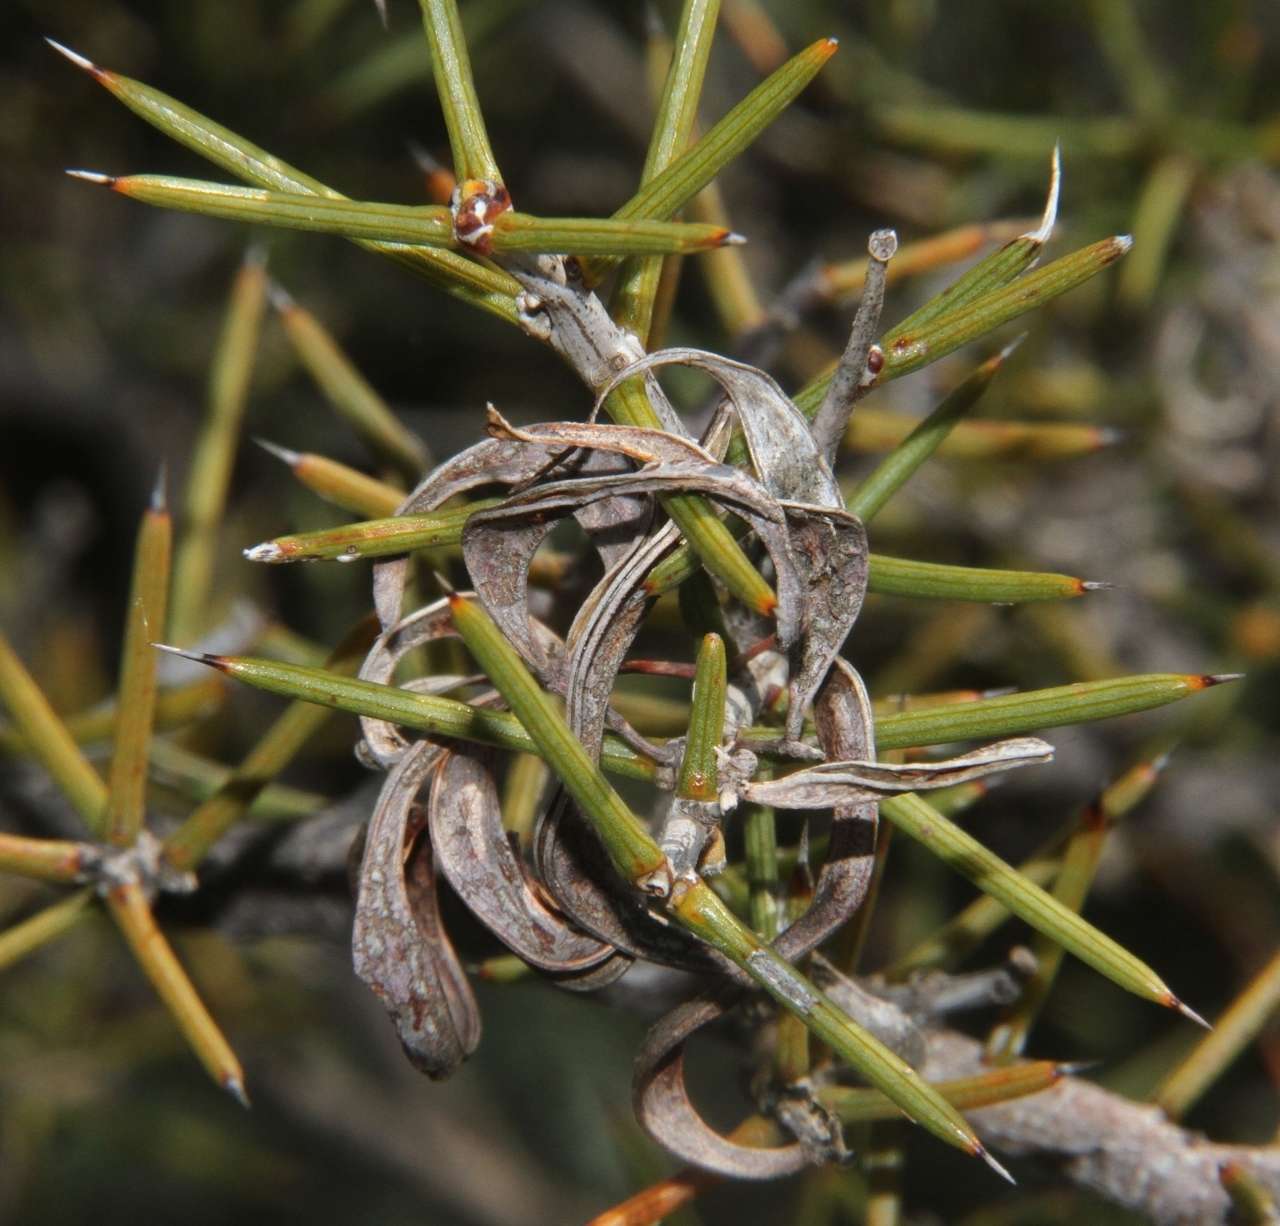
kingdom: Plantae
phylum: Tracheophyta
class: Magnoliopsida
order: Fabales
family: Fabaceae
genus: Acacia
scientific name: Acacia colletioides
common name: Spinebush
